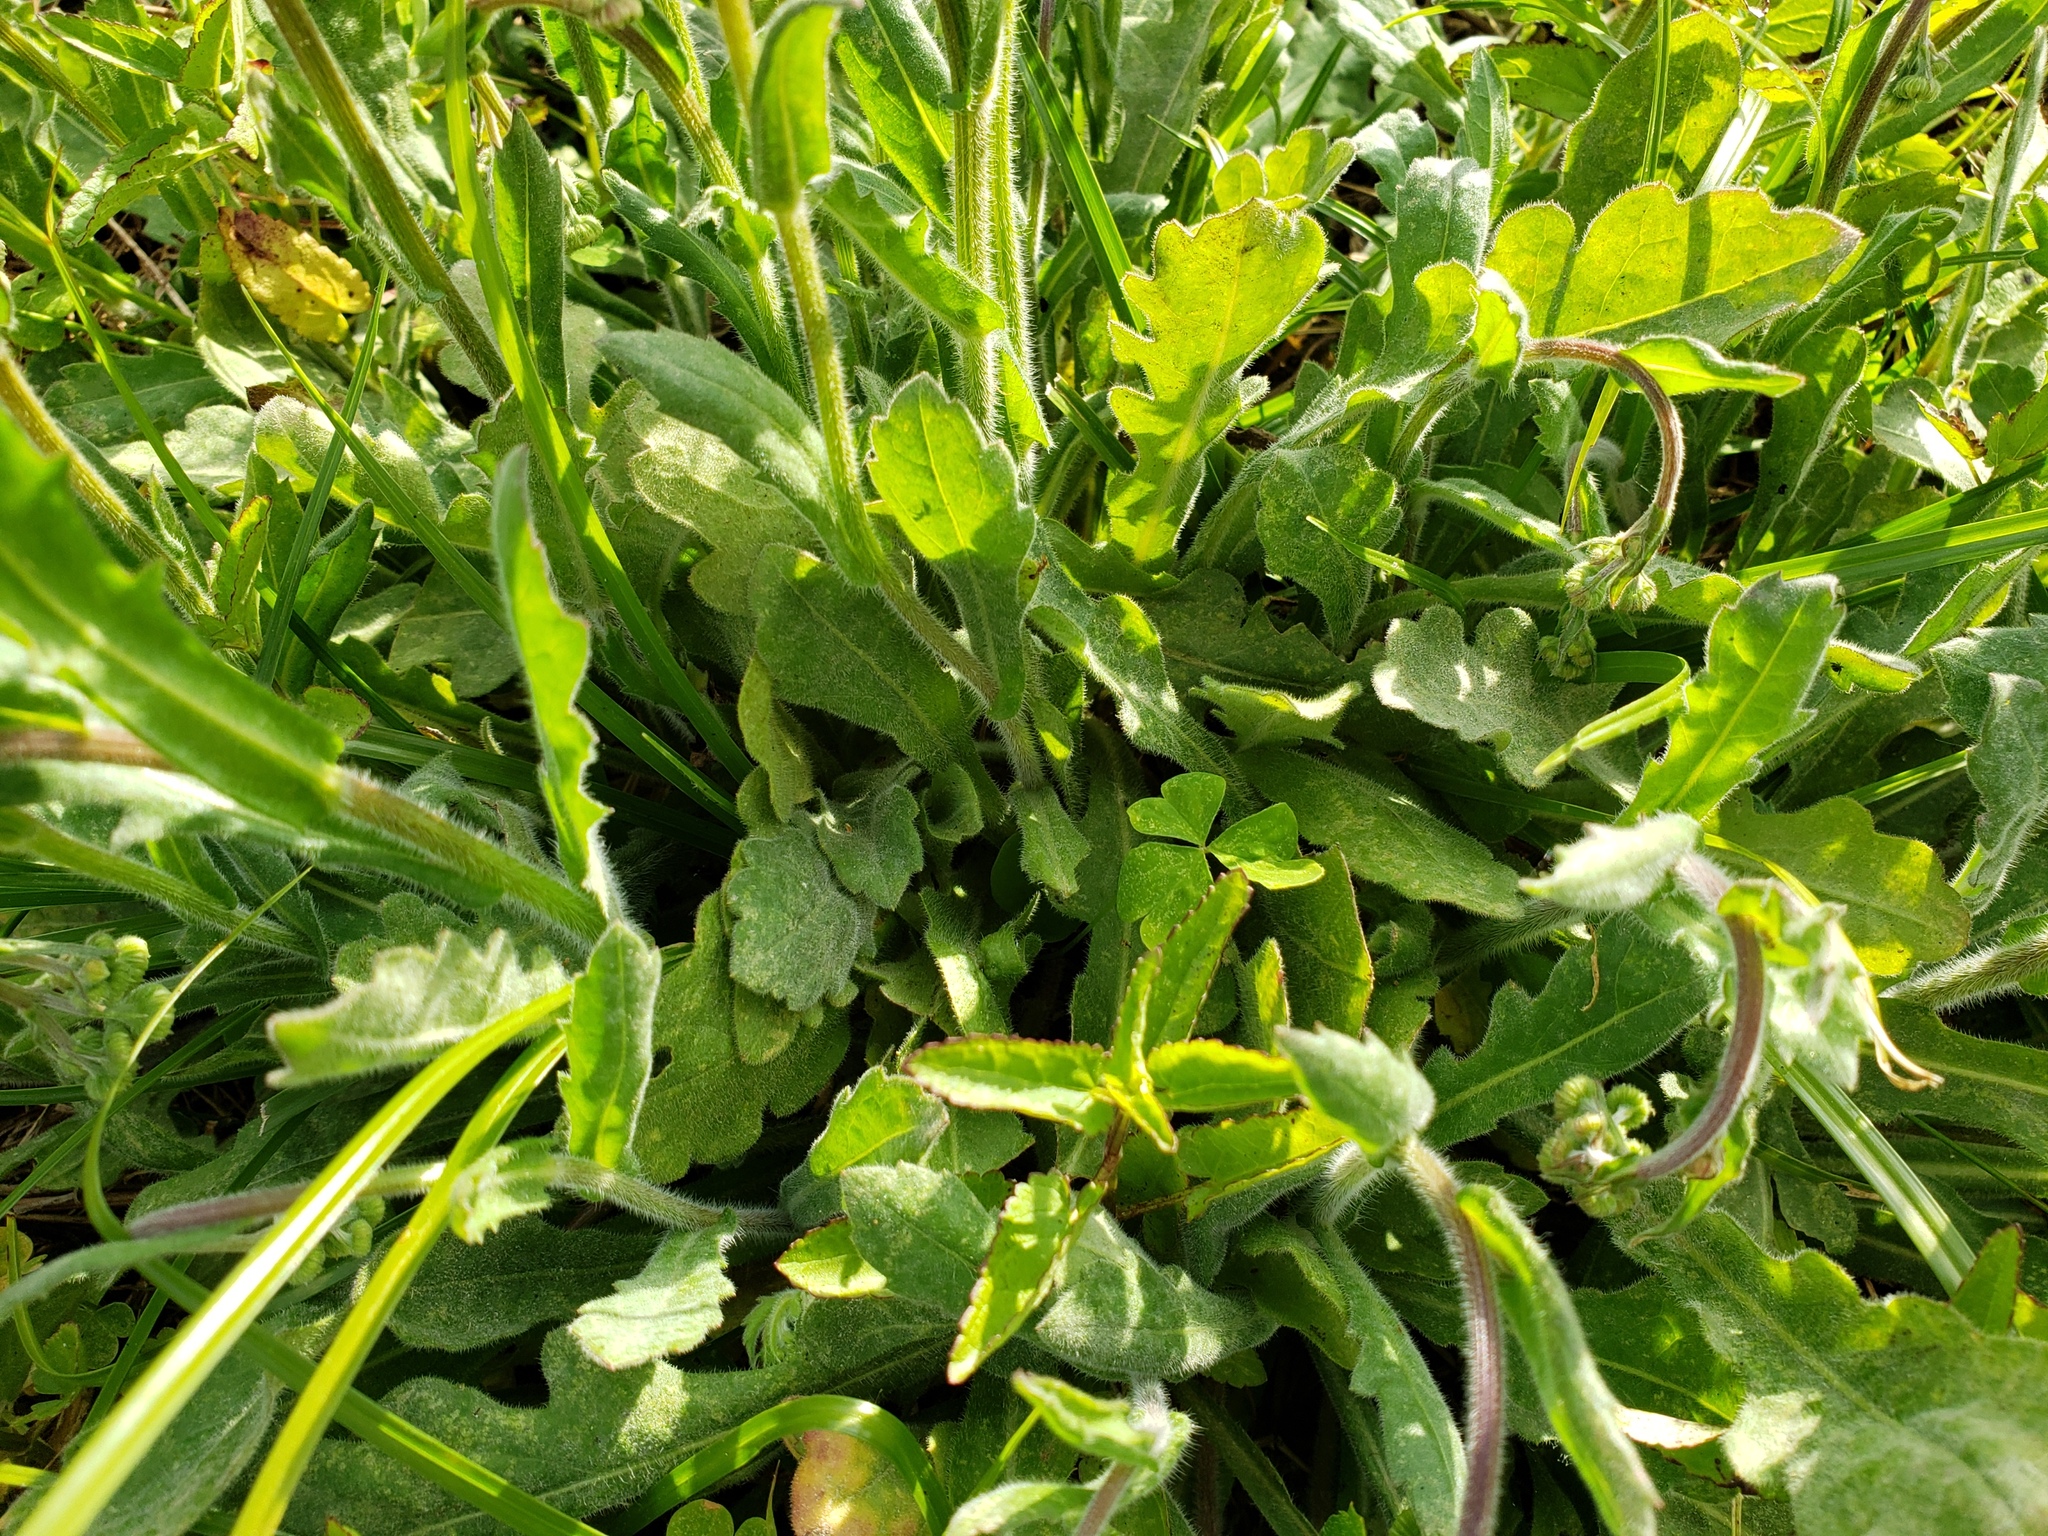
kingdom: Plantae
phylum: Tracheophyta
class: Magnoliopsida
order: Asterales
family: Asteraceae
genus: Erigeron
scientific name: Erigeron quercifolius
